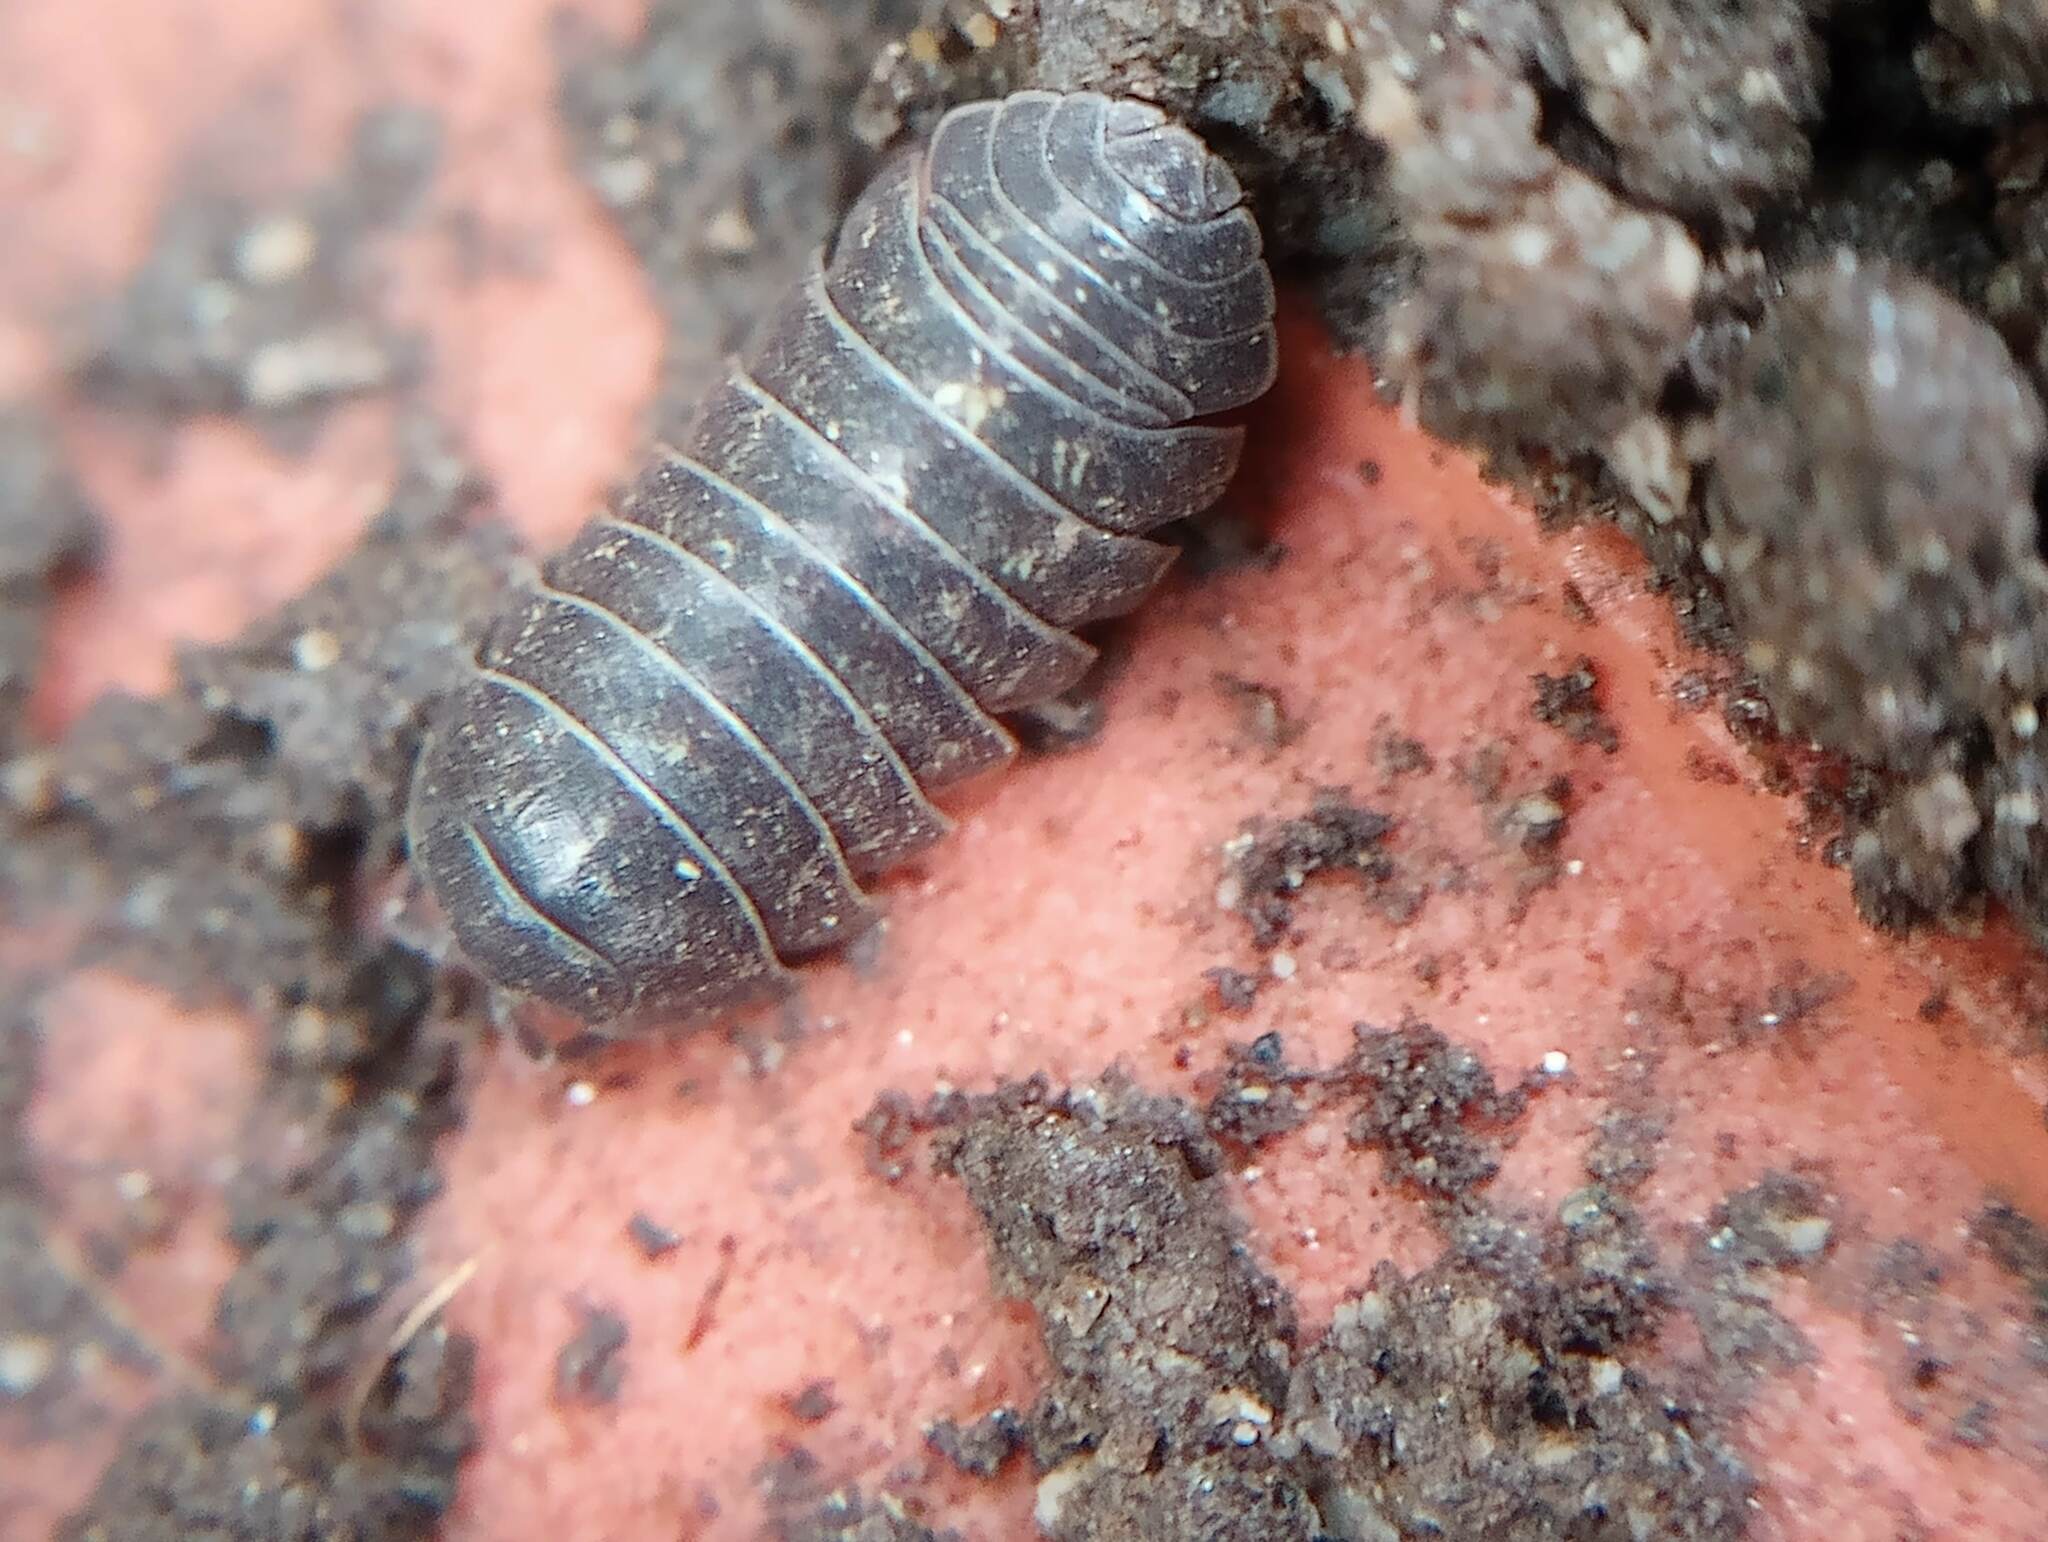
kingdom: Animalia
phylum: Arthropoda
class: Malacostraca
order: Isopoda
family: Armadillidiidae
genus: Armadillidium
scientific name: Armadillidium vulgare
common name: Common pill woodlouse
